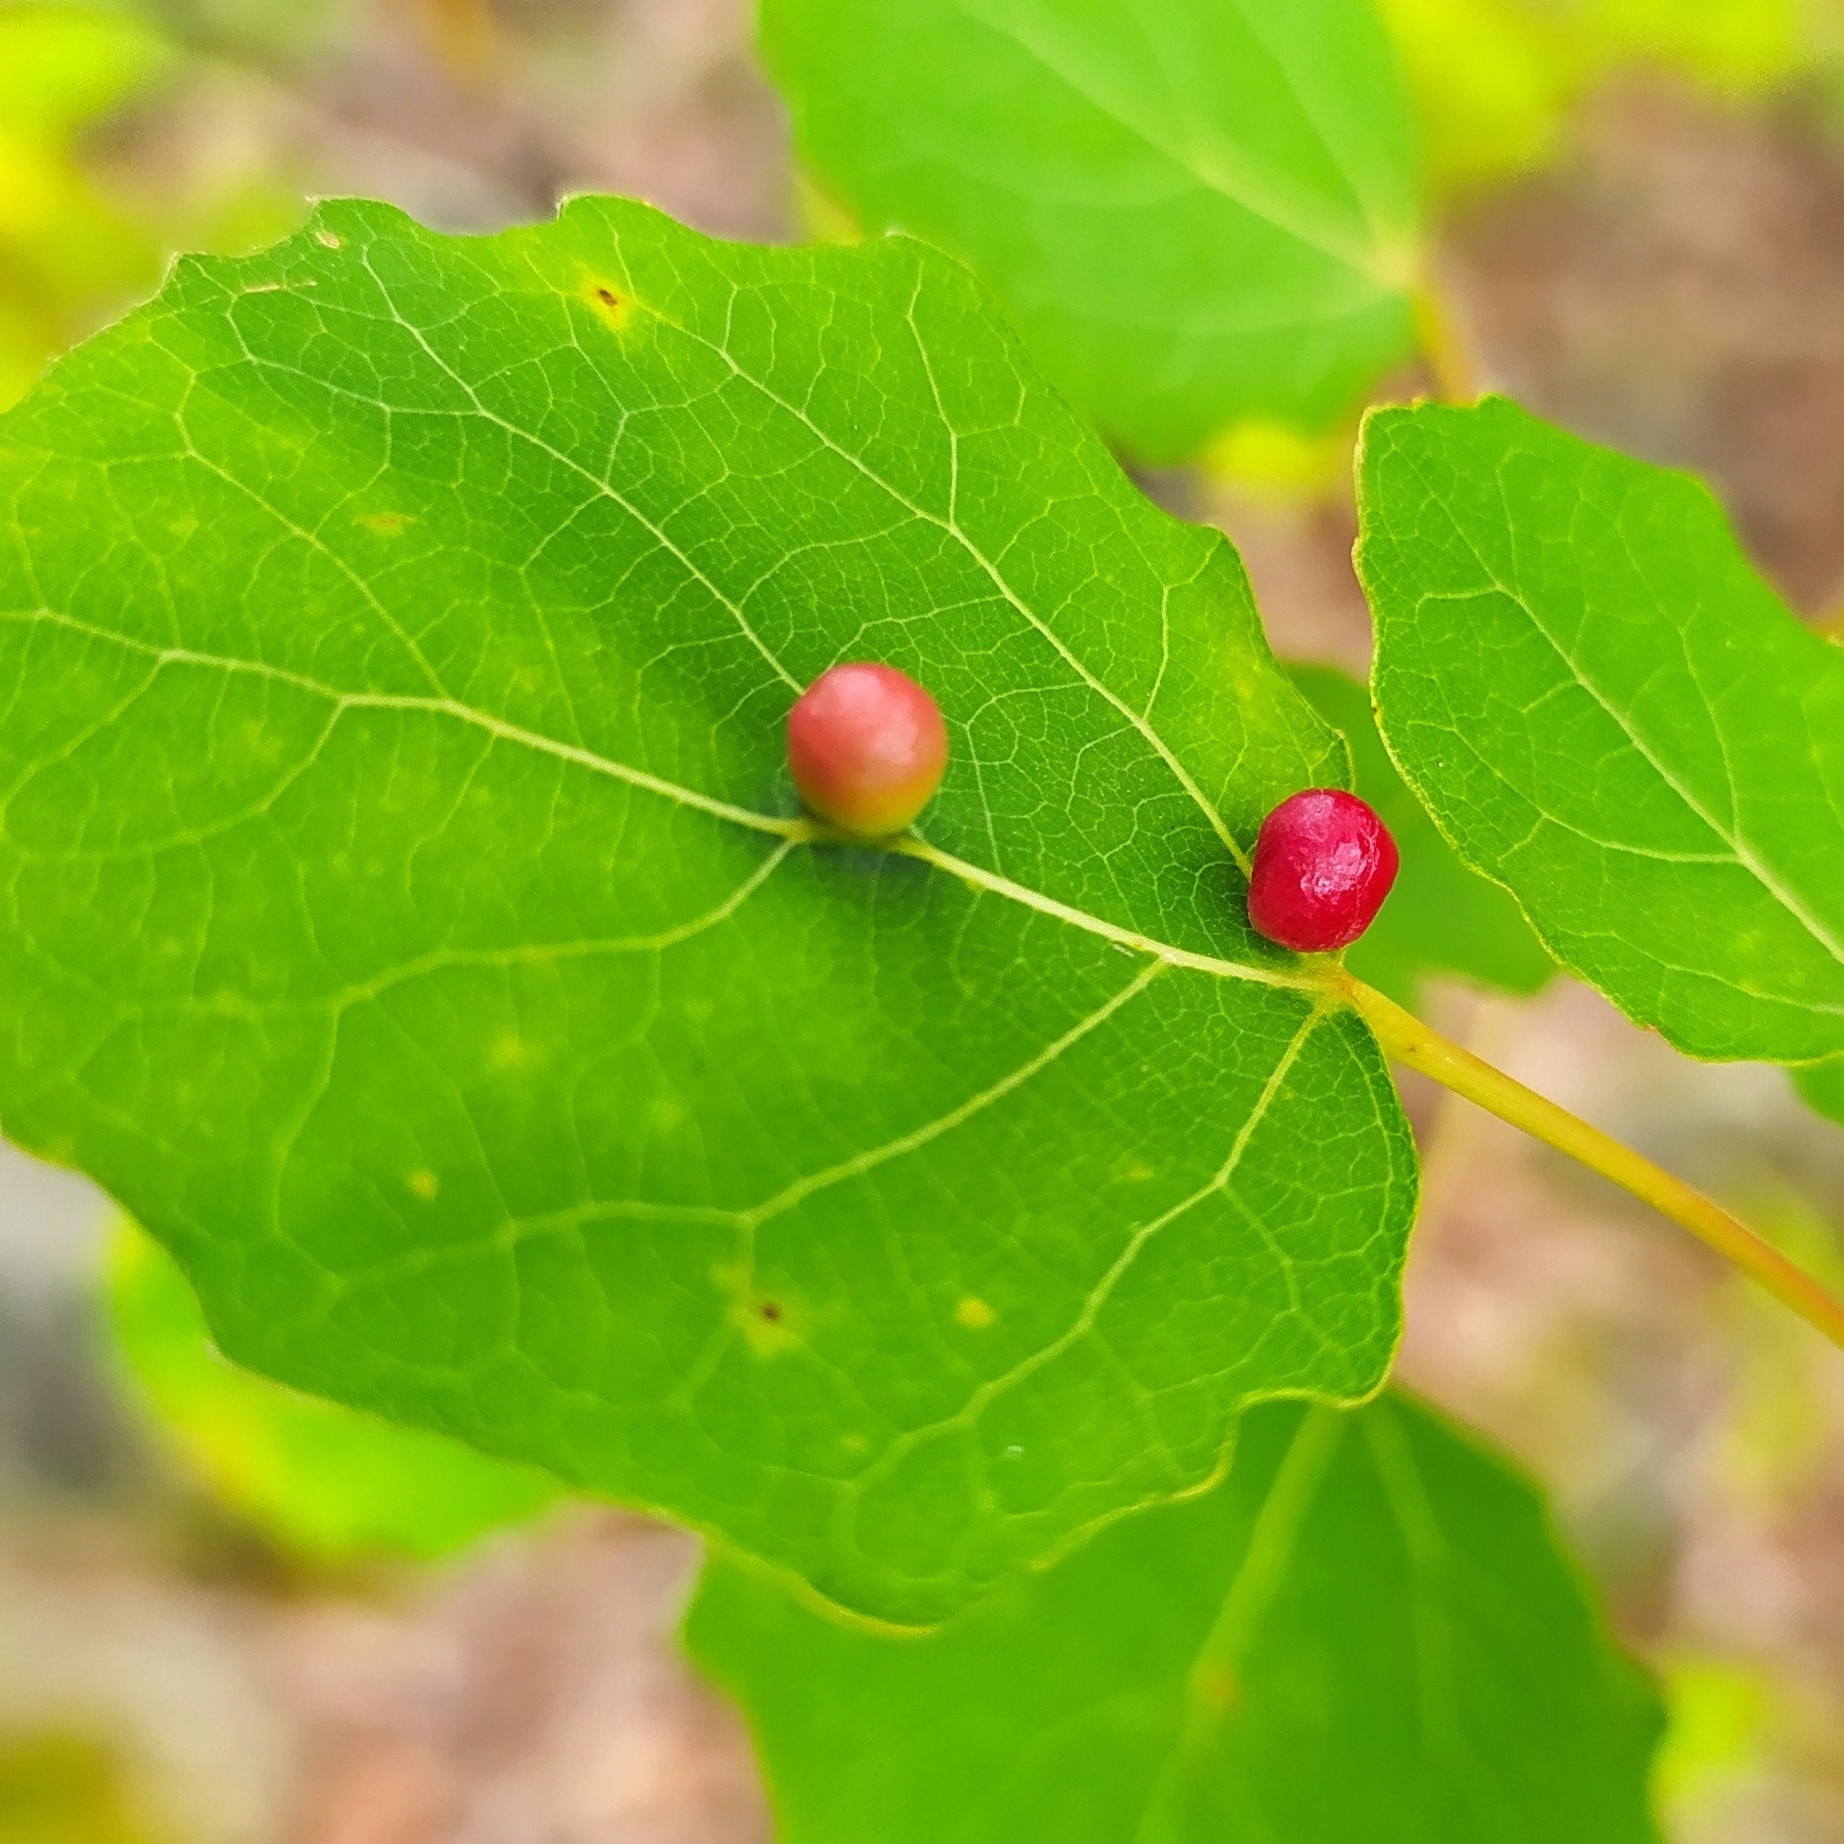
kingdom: Animalia
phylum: Arthropoda
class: Insecta
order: Diptera
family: Cecidomyiidae
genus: Harmandiola
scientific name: Harmandiola tremulae
